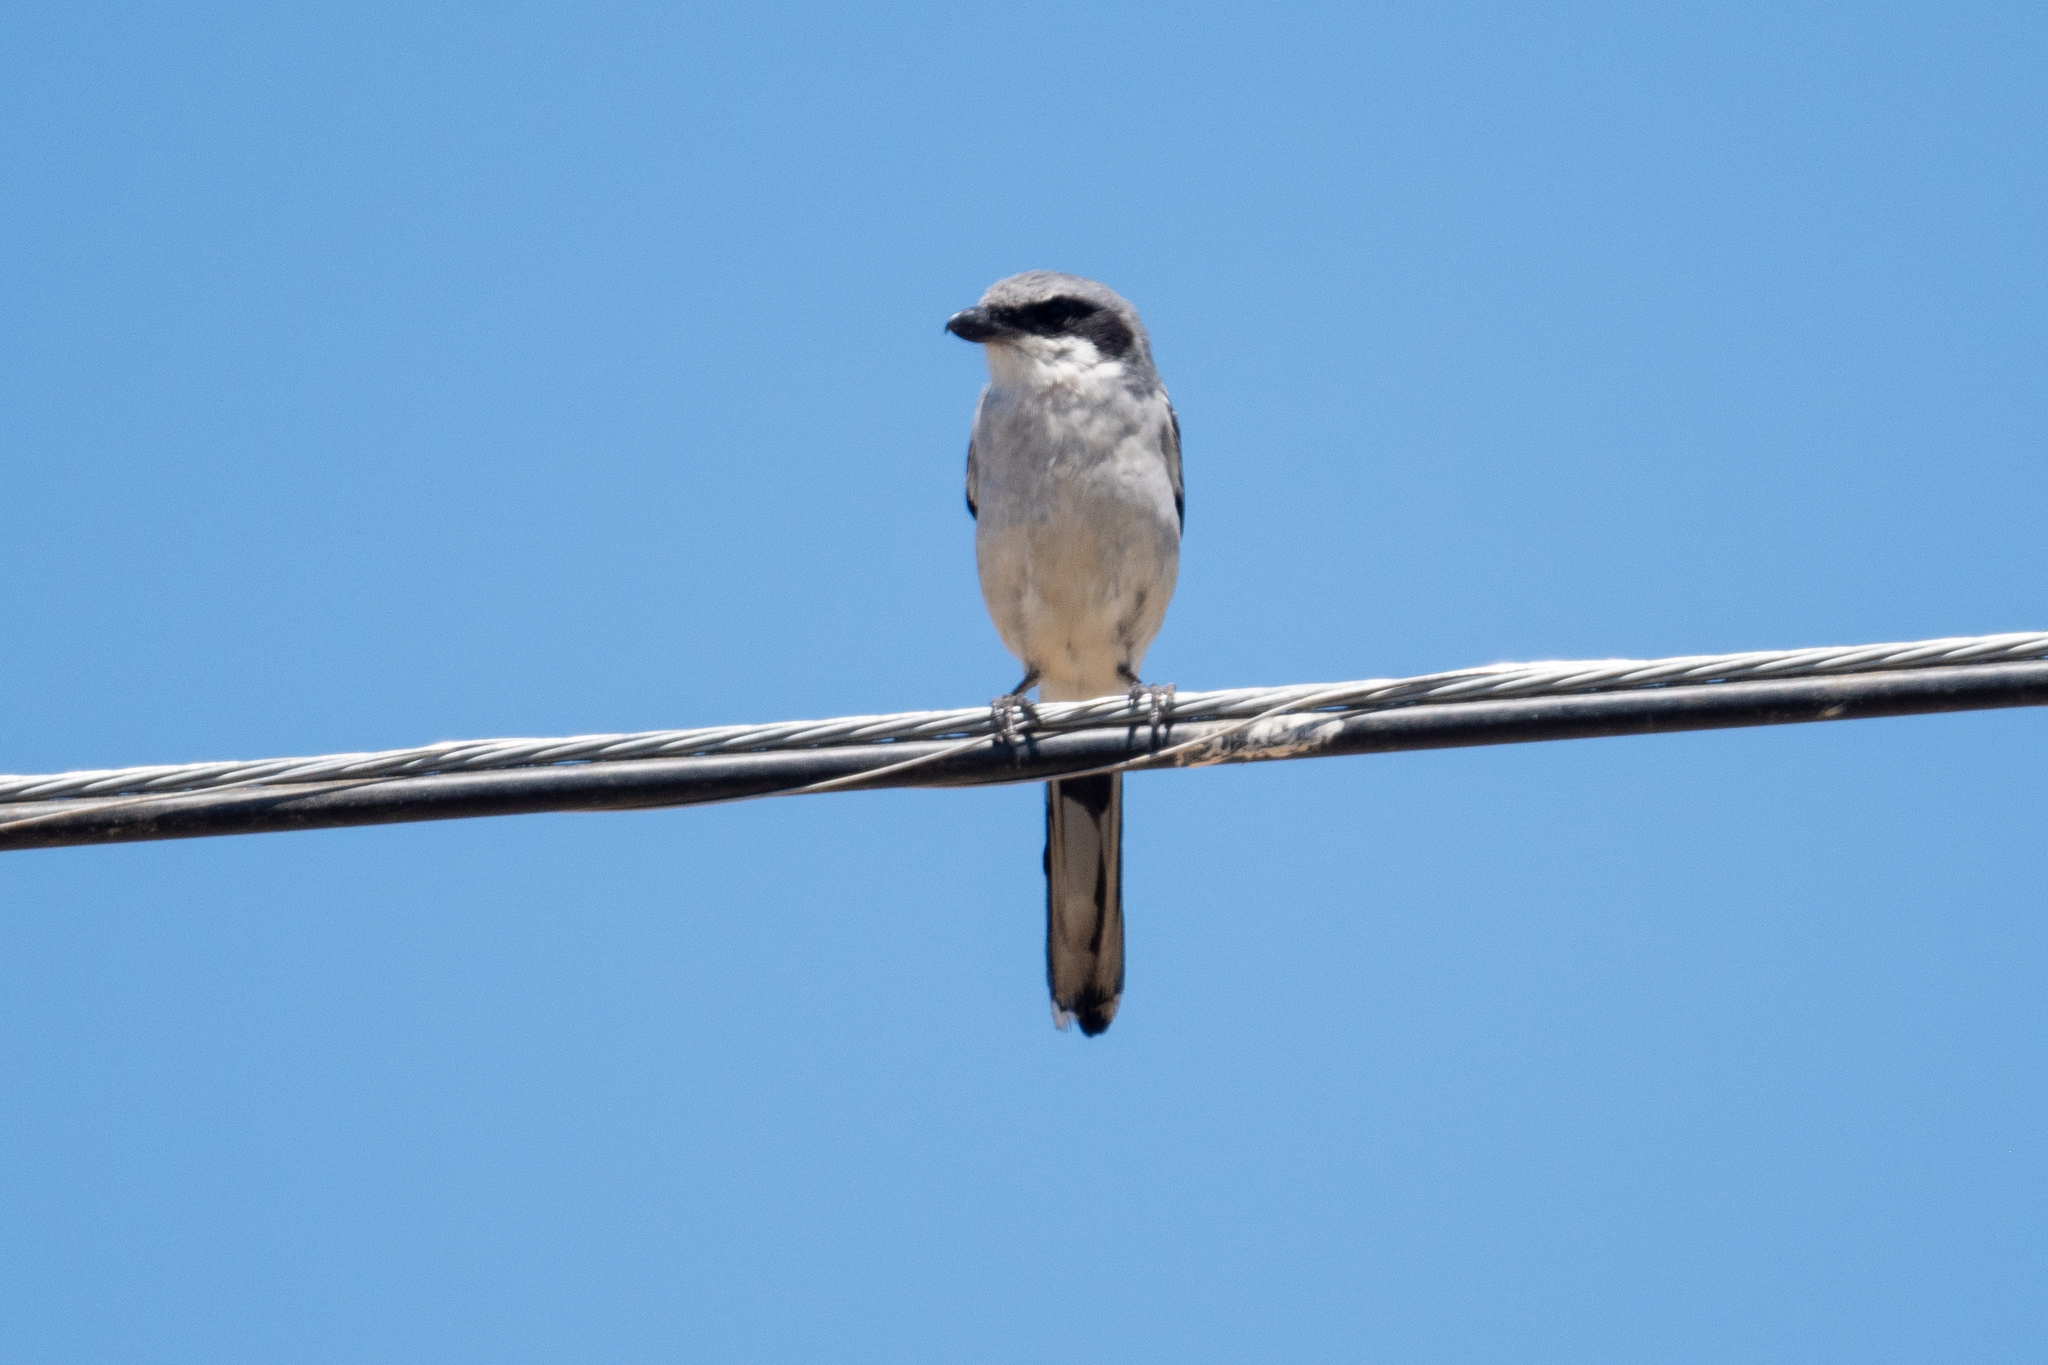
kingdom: Animalia
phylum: Chordata
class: Aves
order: Passeriformes
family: Laniidae
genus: Lanius
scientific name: Lanius ludovicianus
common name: Loggerhead shrike
